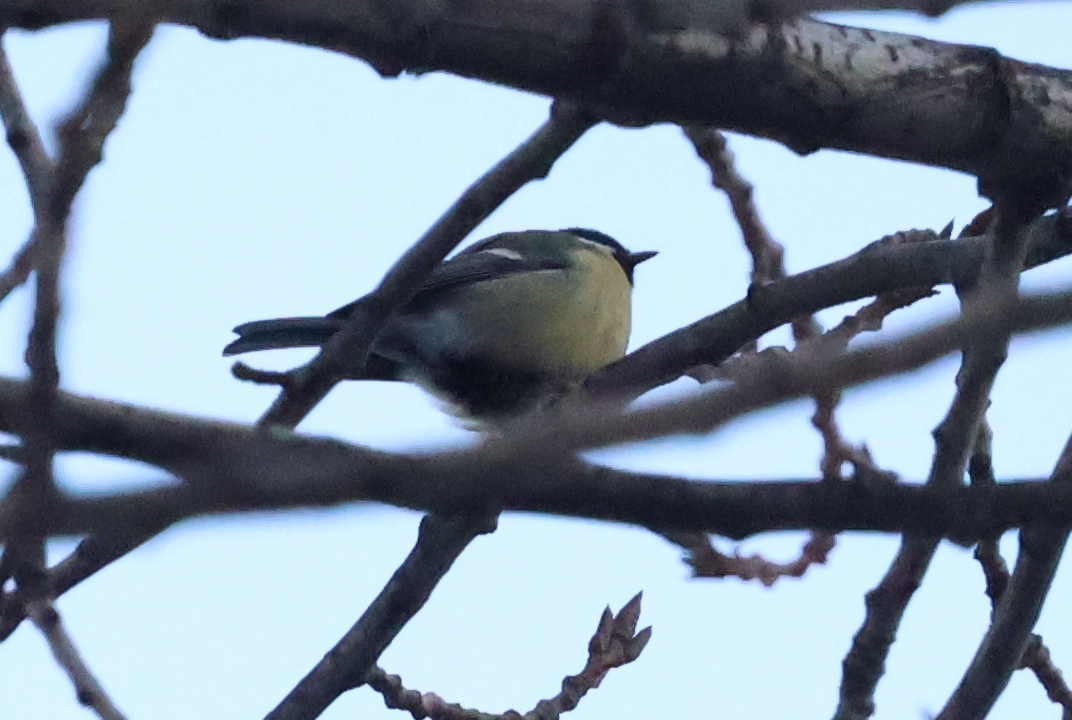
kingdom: Animalia
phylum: Chordata
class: Aves
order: Passeriformes
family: Paridae
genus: Parus
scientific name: Parus major
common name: Great tit
